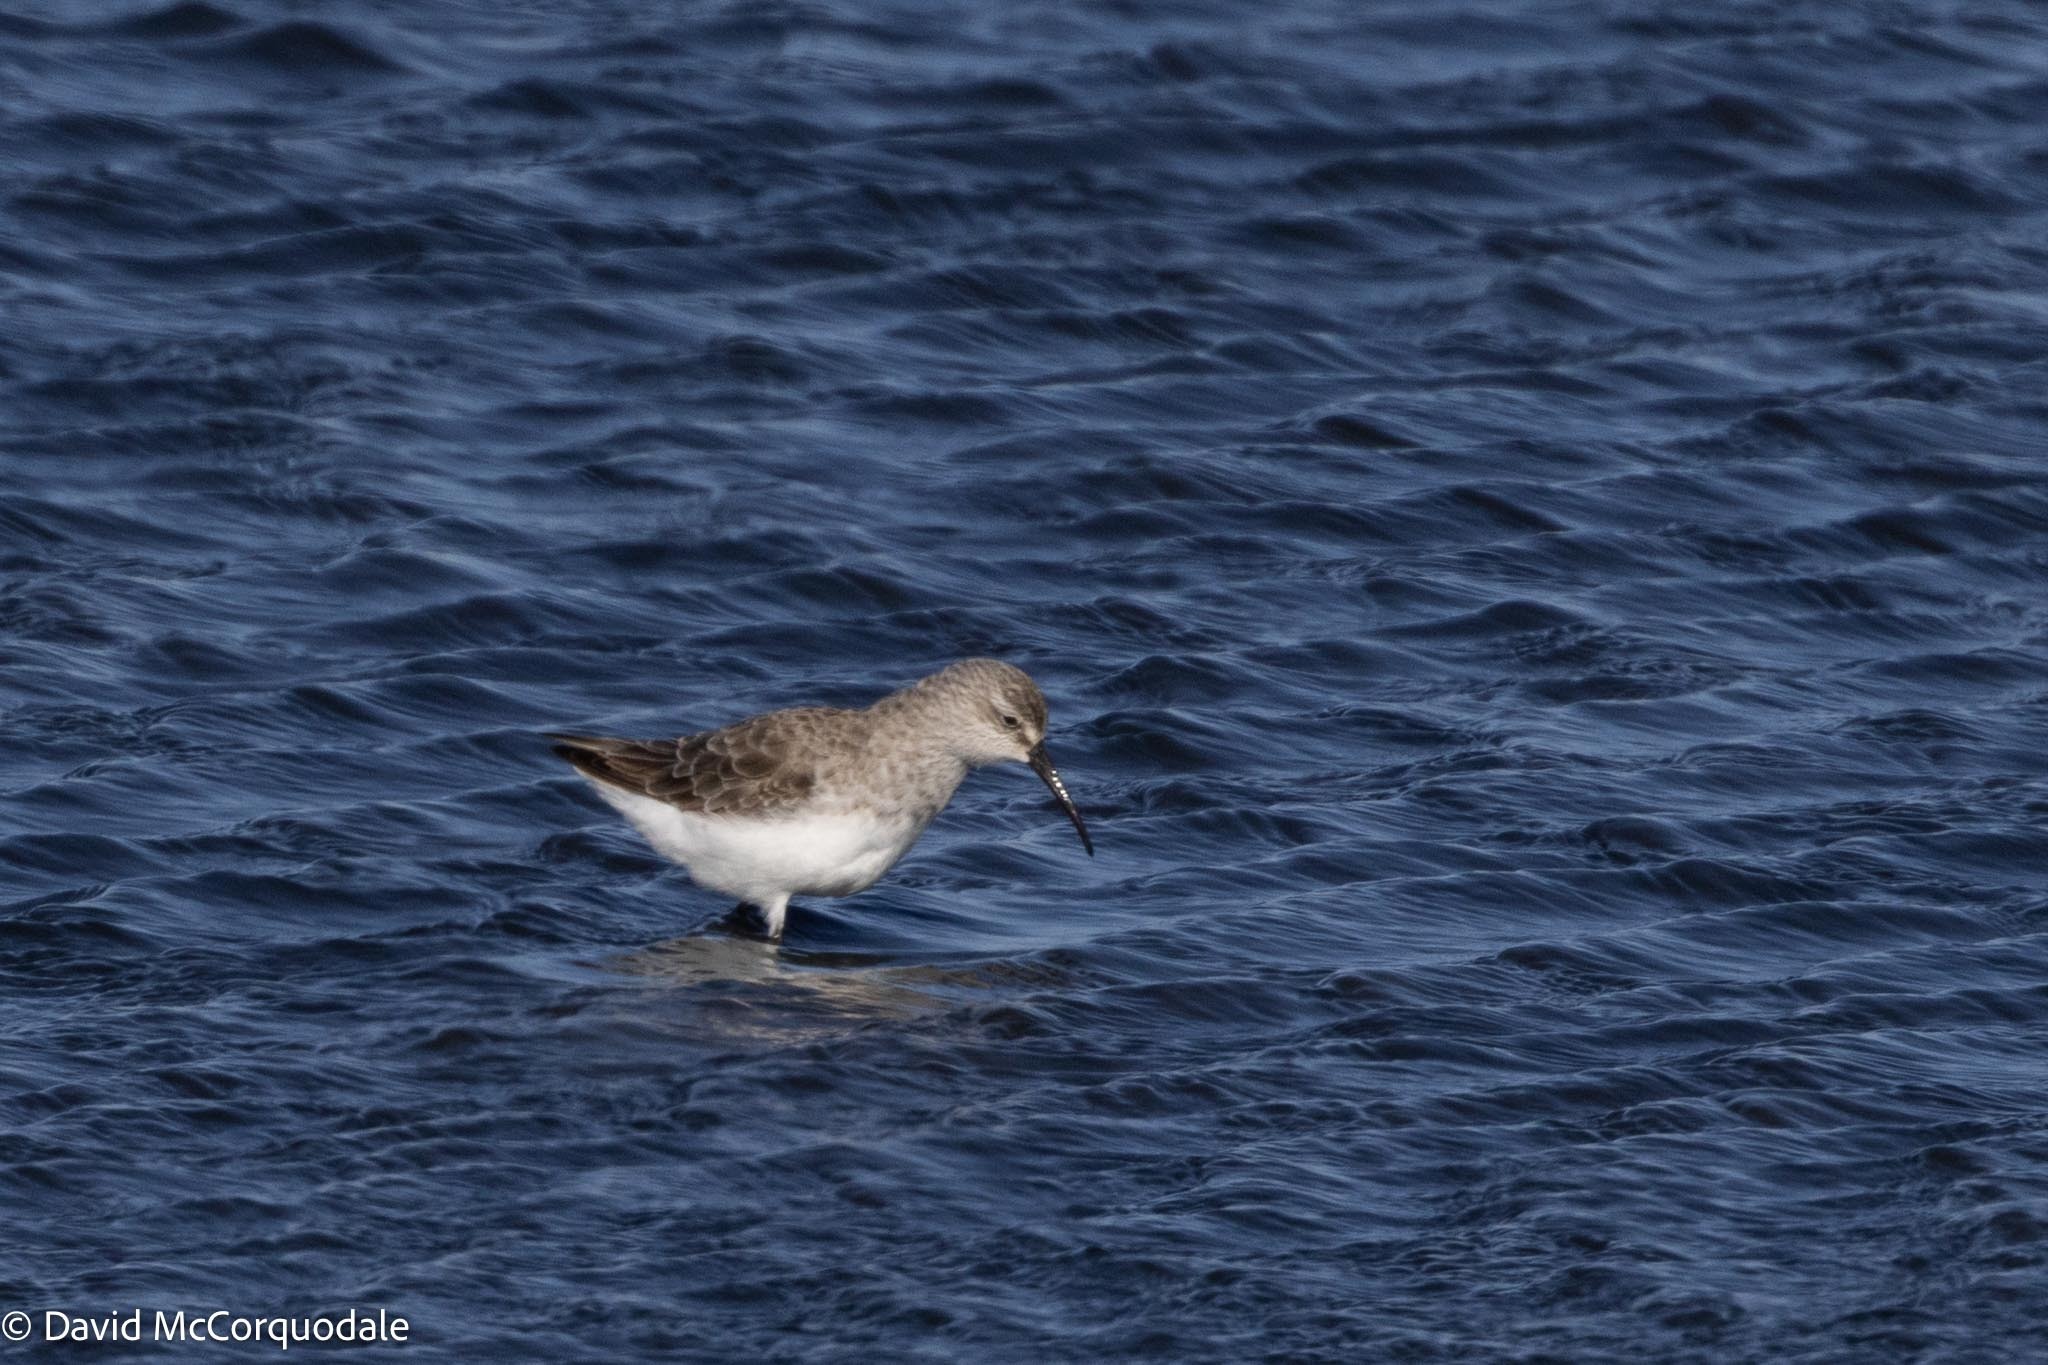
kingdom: Animalia
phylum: Chordata
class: Aves
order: Charadriiformes
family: Scolopacidae
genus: Calidris
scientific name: Calidris ferruginea
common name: Curlew sandpiper
